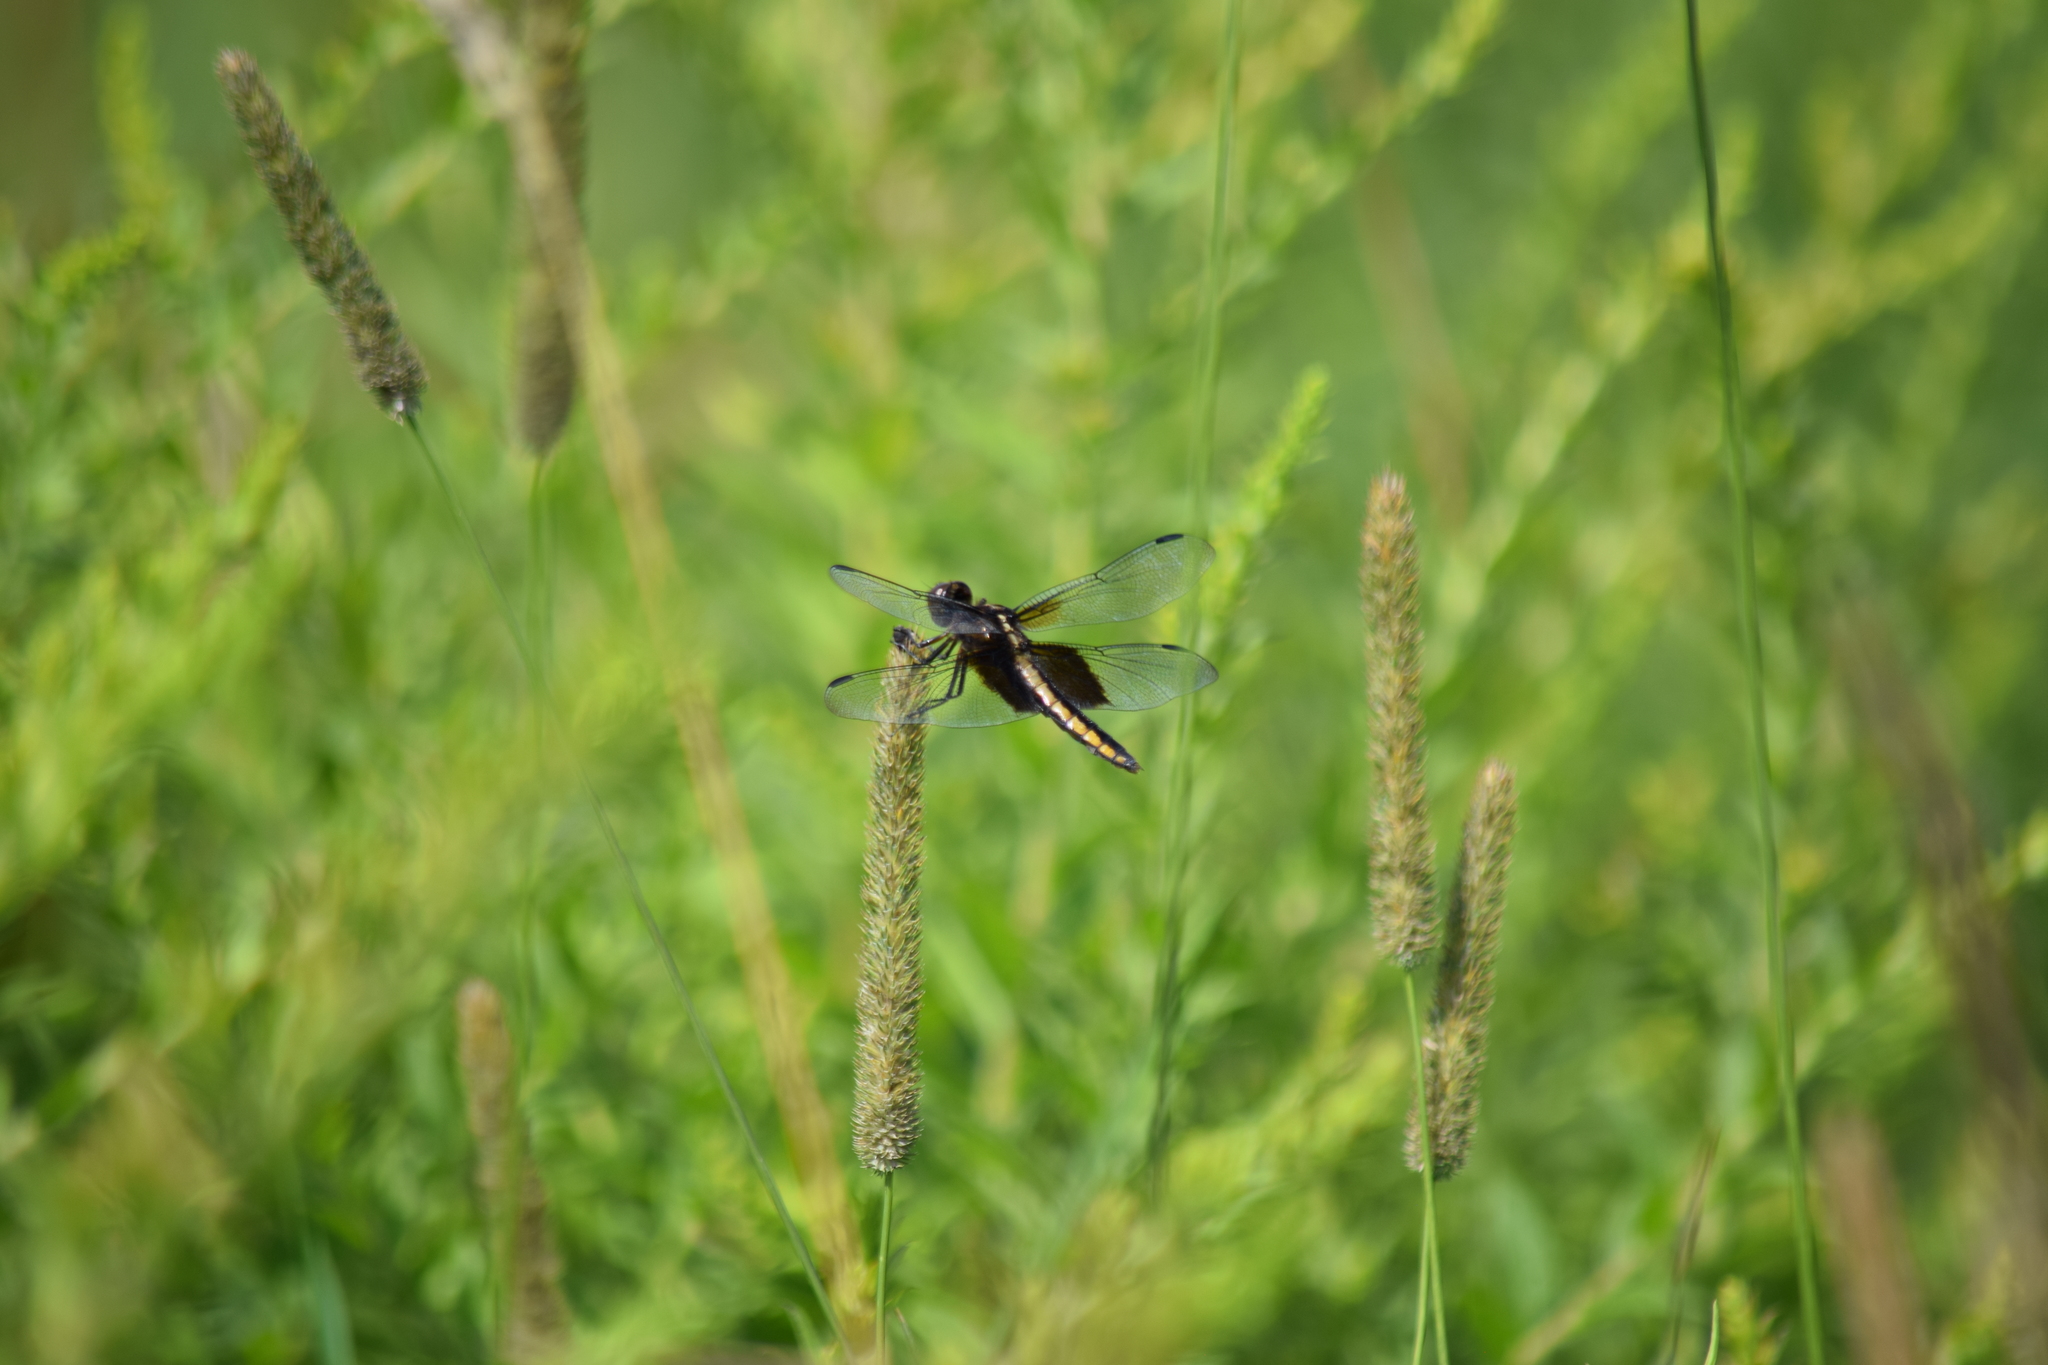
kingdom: Animalia
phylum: Arthropoda
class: Insecta
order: Odonata
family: Libellulidae
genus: Libellula
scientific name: Libellula luctuosa
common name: Widow skimmer
